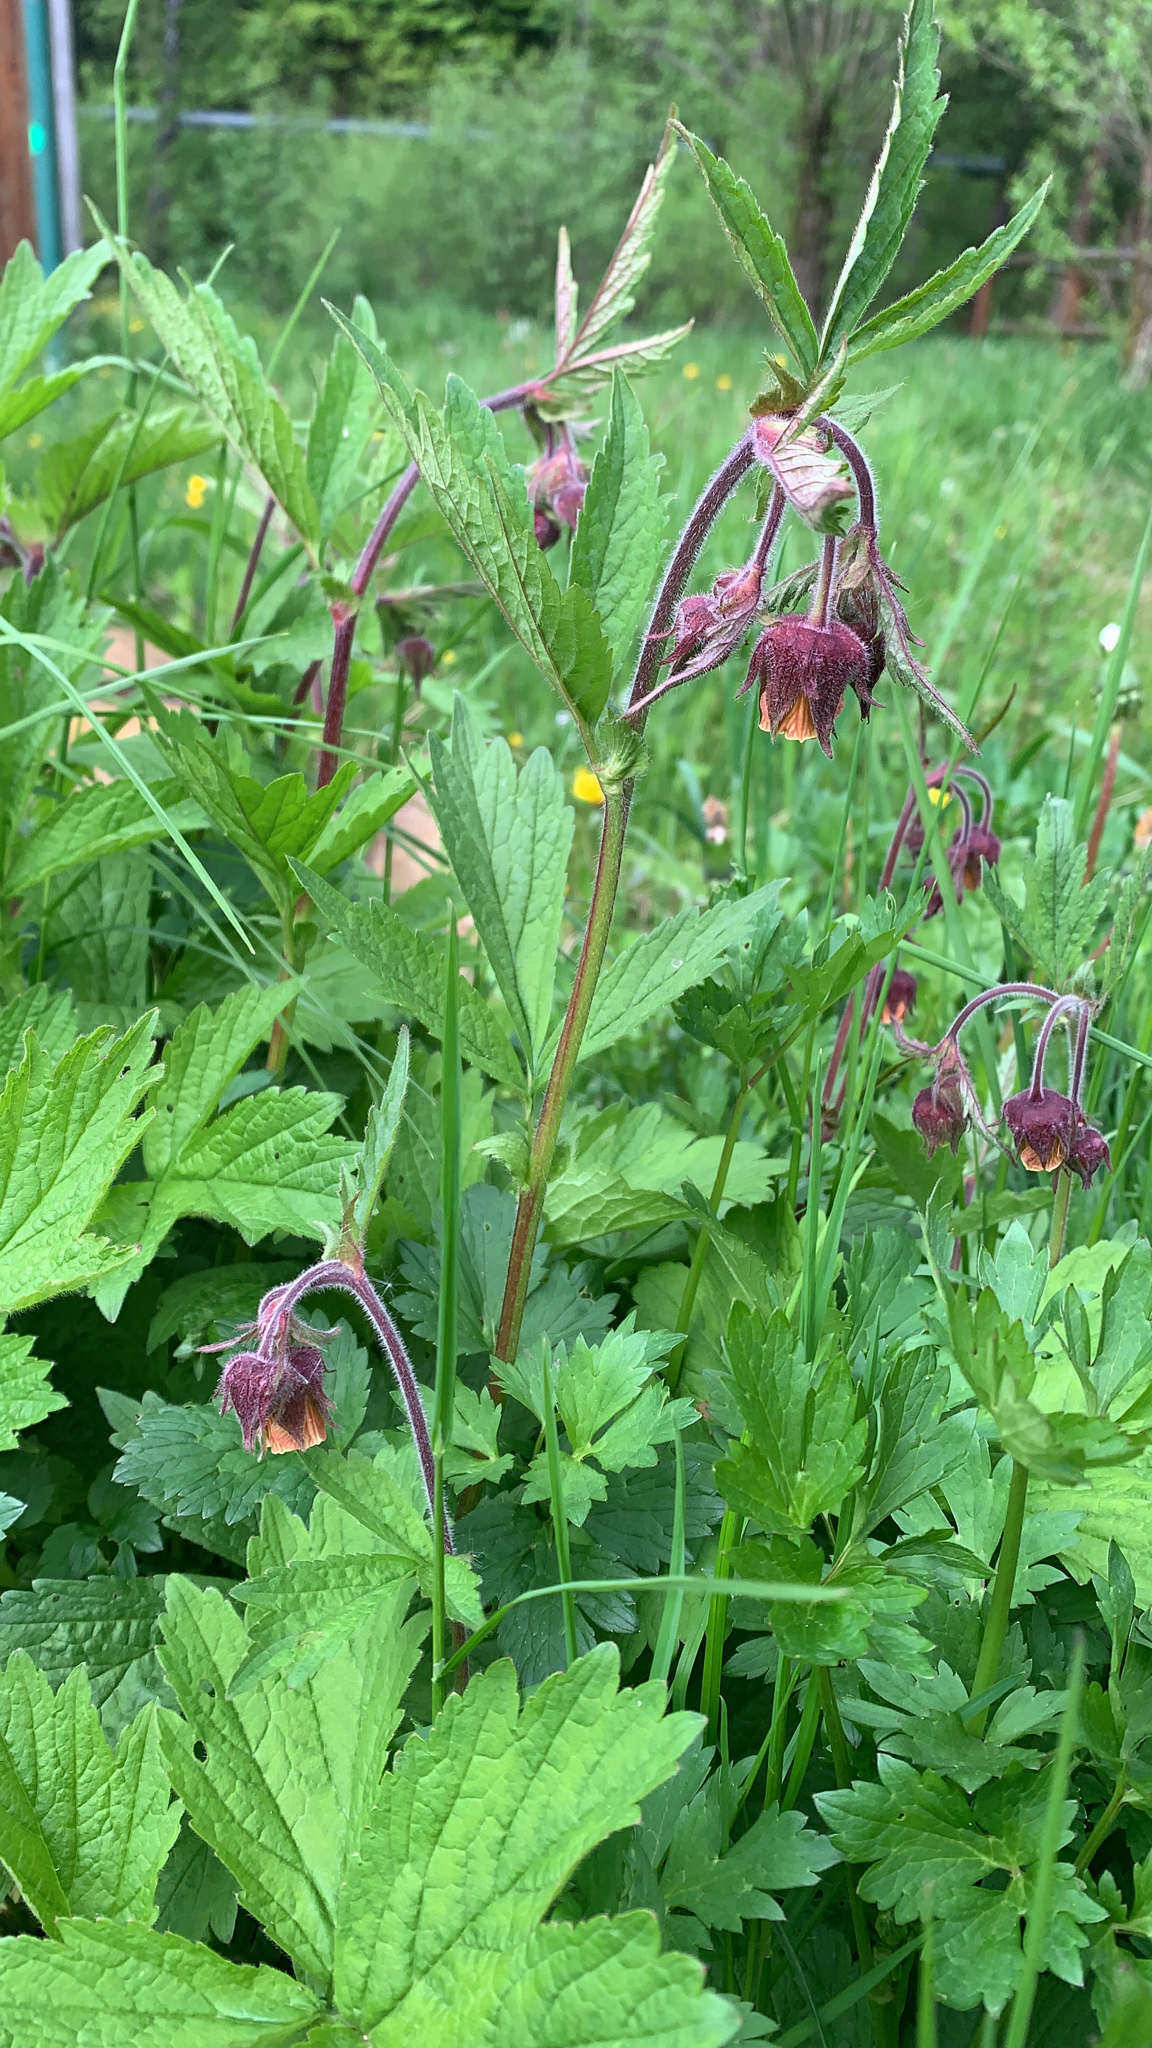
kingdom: Plantae
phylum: Tracheophyta
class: Magnoliopsida
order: Rosales
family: Rosaceae
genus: Geum
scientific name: Geum rivale
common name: Water avens
